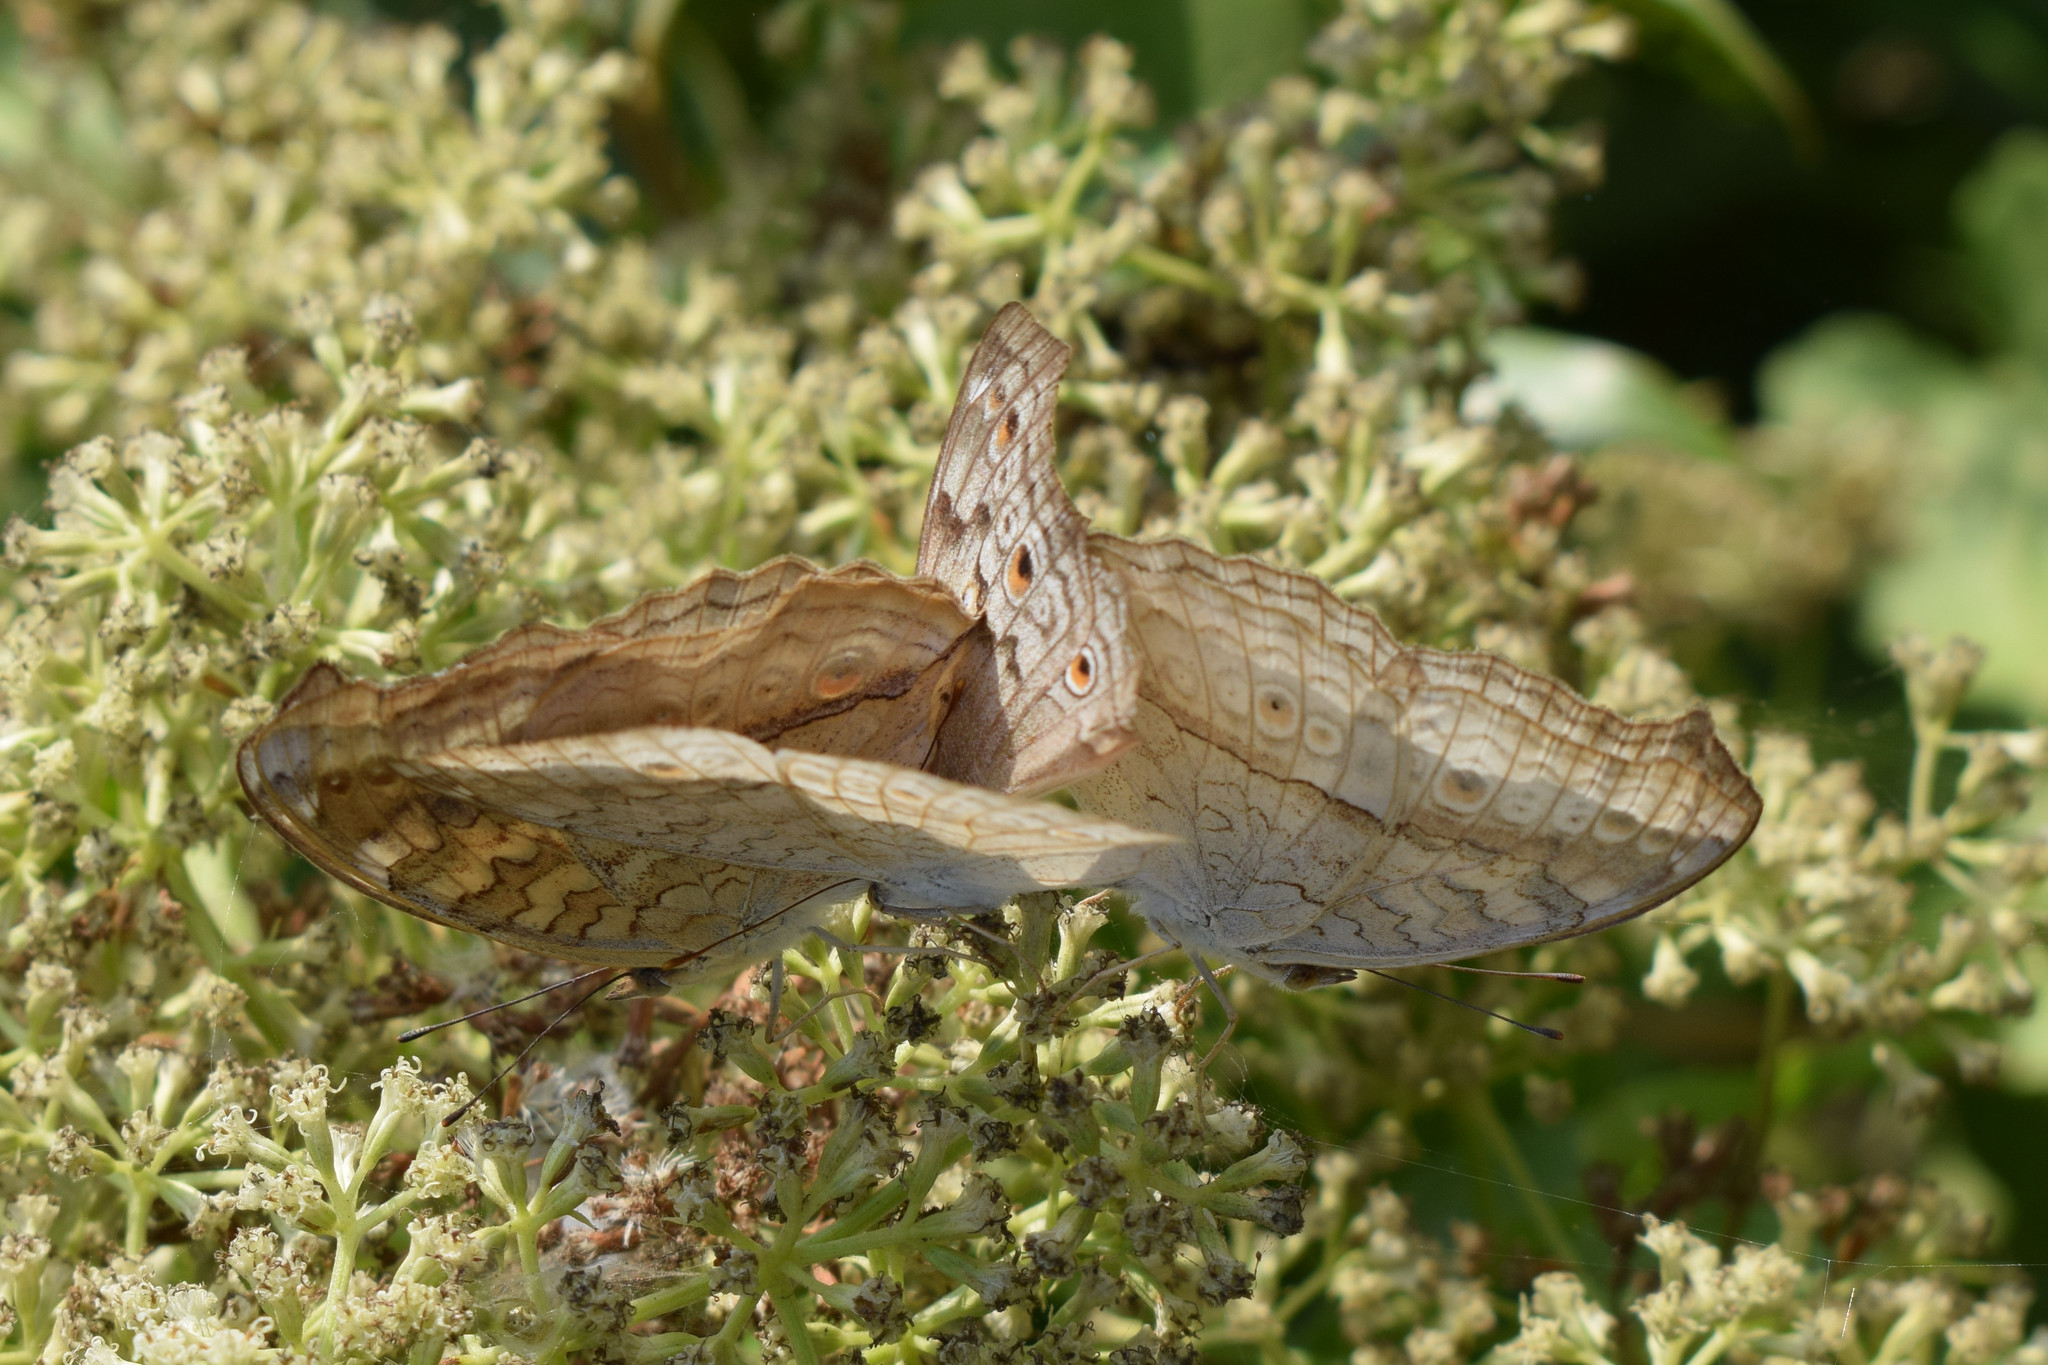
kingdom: Animalia
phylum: Arthropoda
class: Insecta
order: Lepidoptera
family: Nymphalidae
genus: Junonia
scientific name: Junonia atlites
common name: Grey pansy
